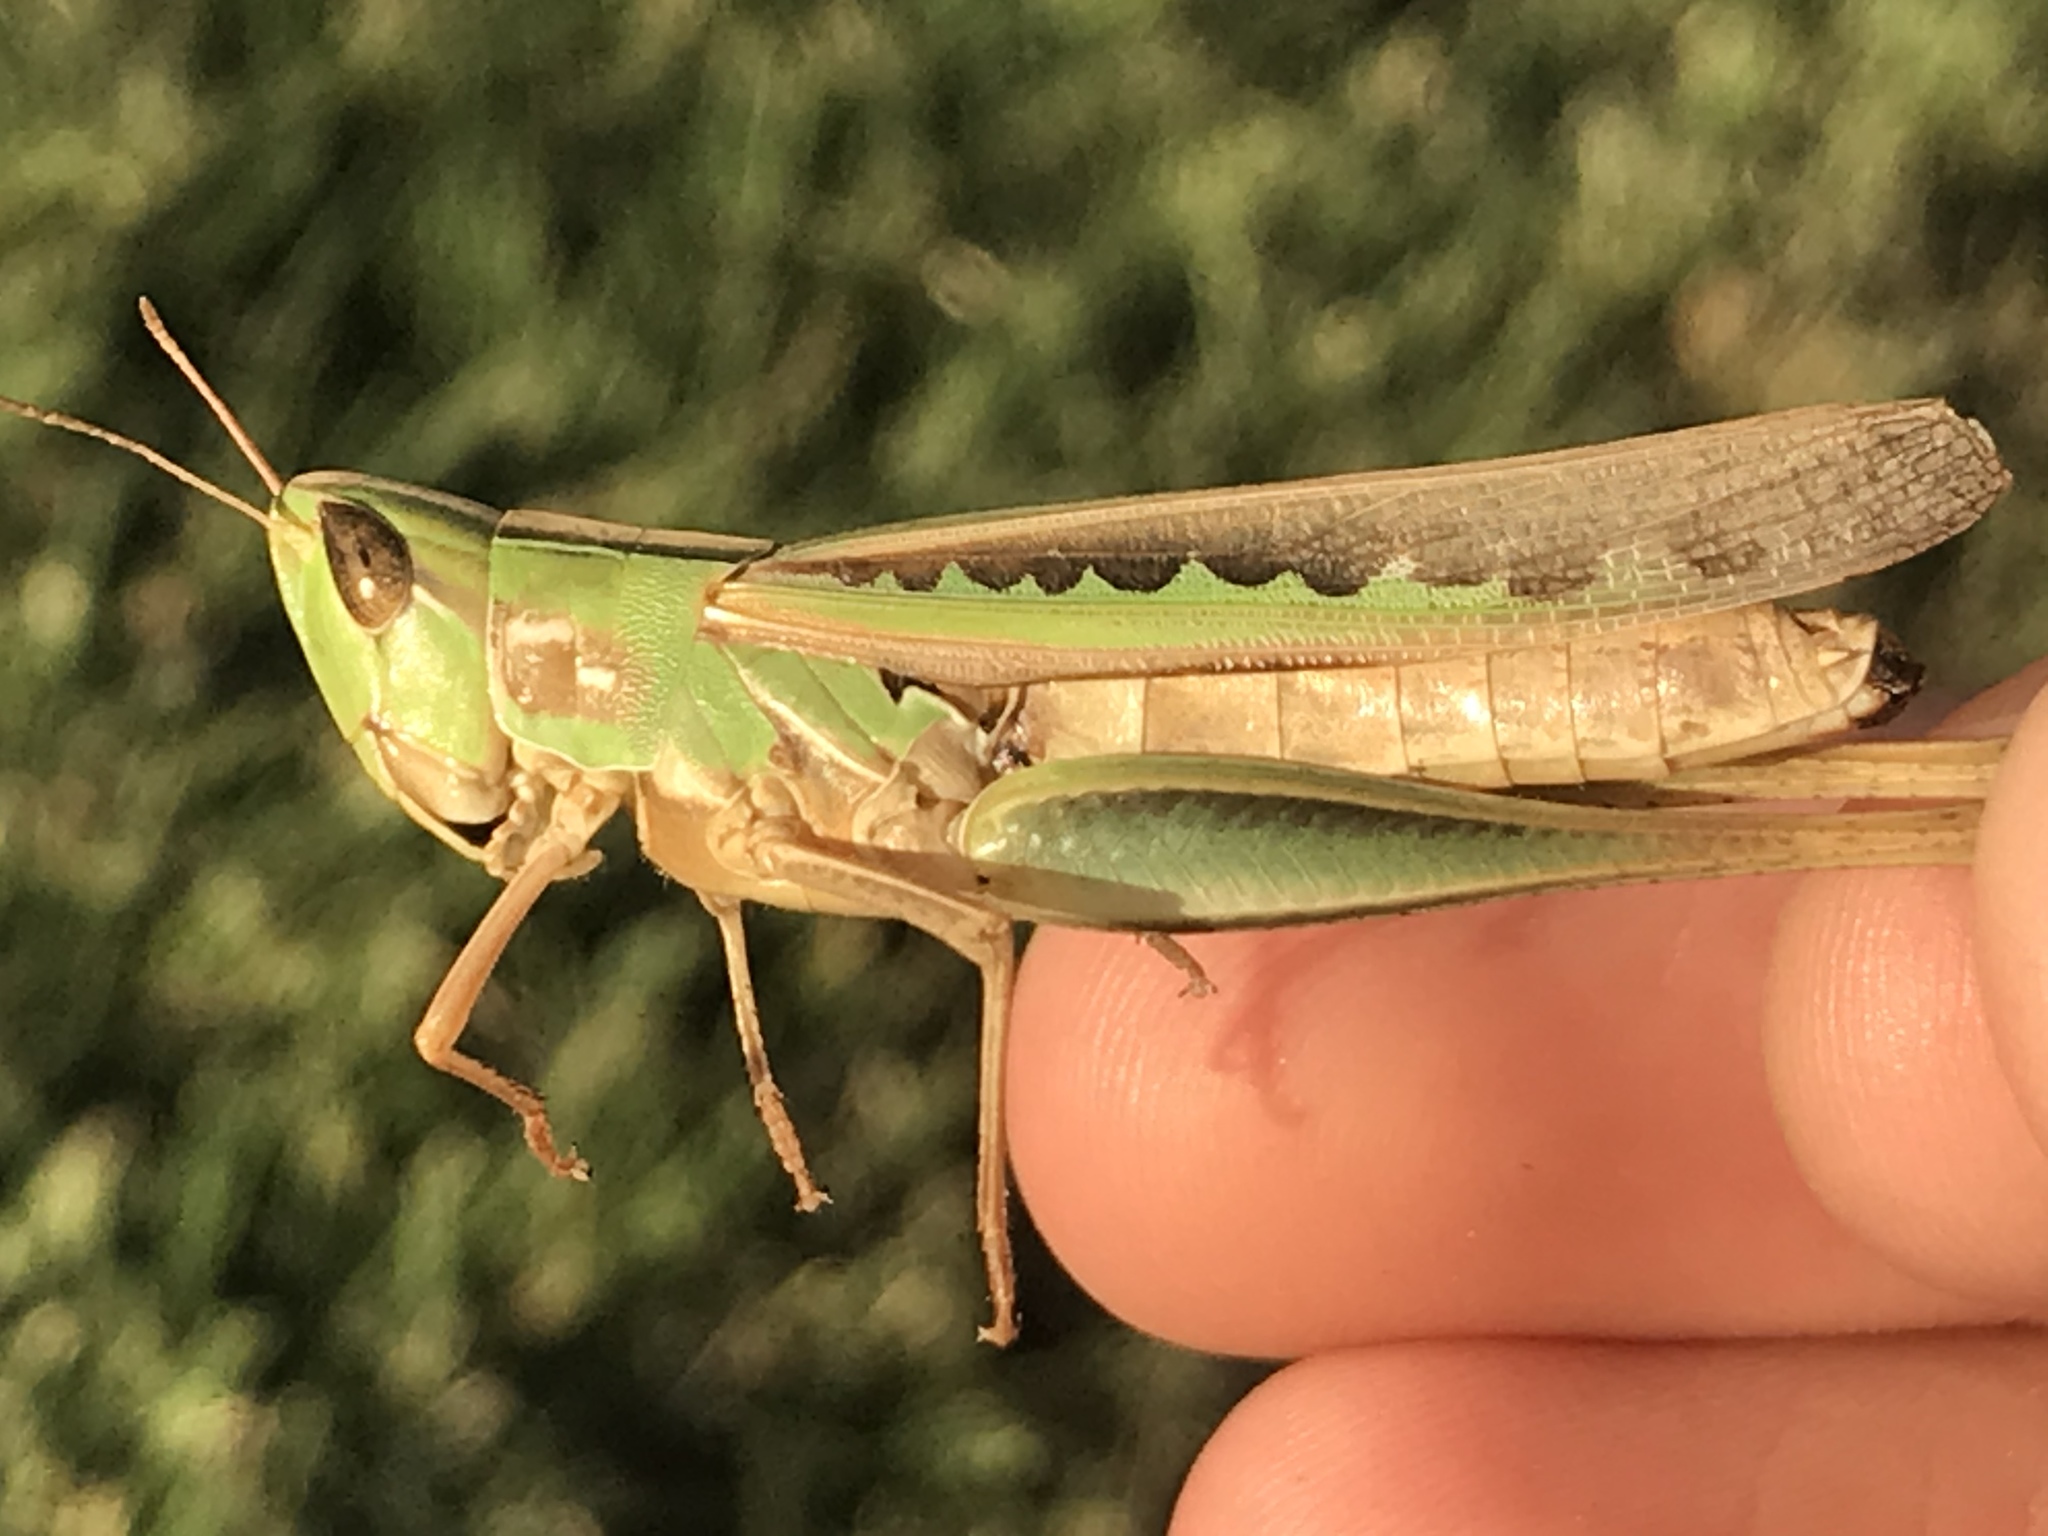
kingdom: Animalia
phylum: Arthropoda
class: Insecta
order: Orthoptera
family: Acrididae
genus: Syrbula
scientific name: Syrbula admirabilis
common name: Handsome grasshopper
